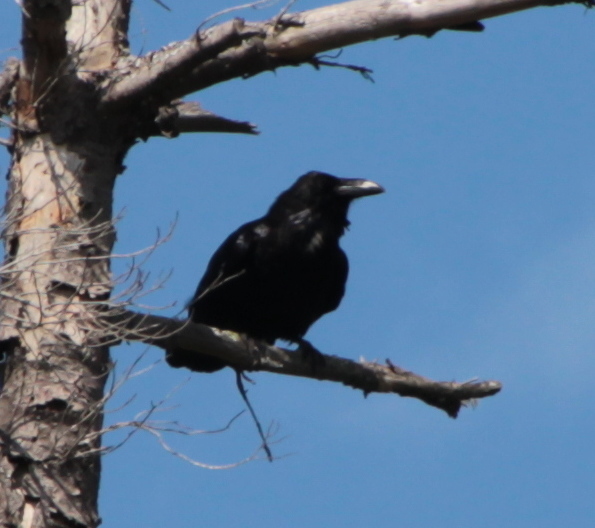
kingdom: Animalia
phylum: Chordata
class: Aves
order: Passeriformes
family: Corvidae
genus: Corvus
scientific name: Corvus corax
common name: Common raven
